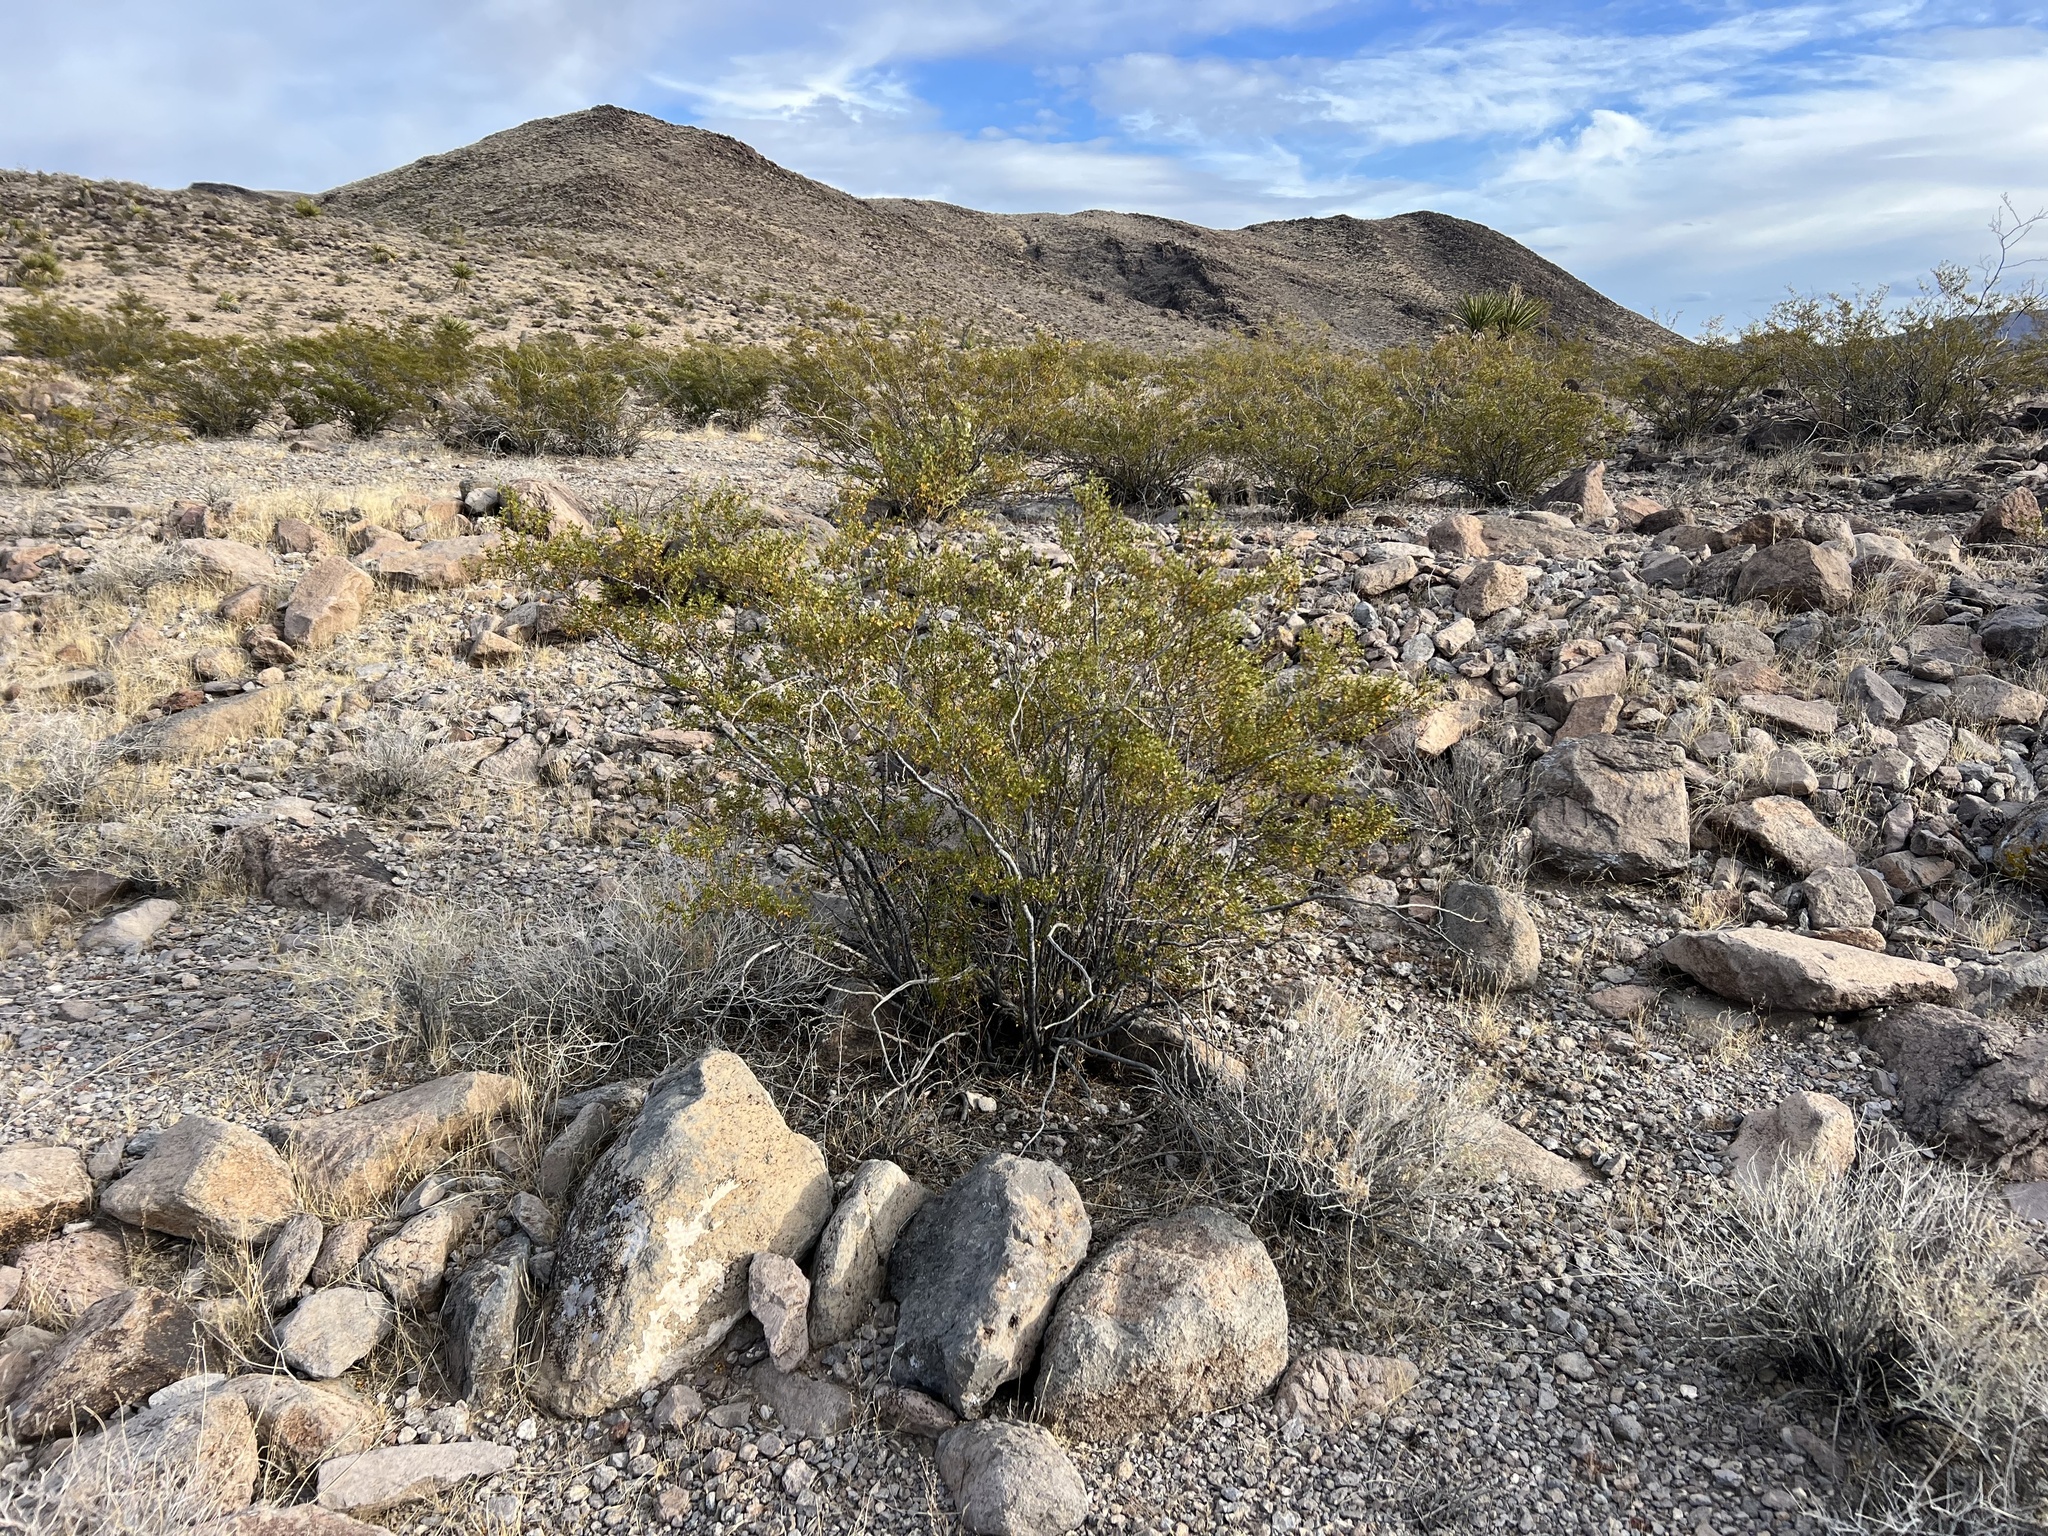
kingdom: Plantae
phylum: Tracheophyta
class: Magnoliopsida
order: Zygophyllales
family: Zygophyllaceae
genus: Larrea
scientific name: Larrea tridentata
